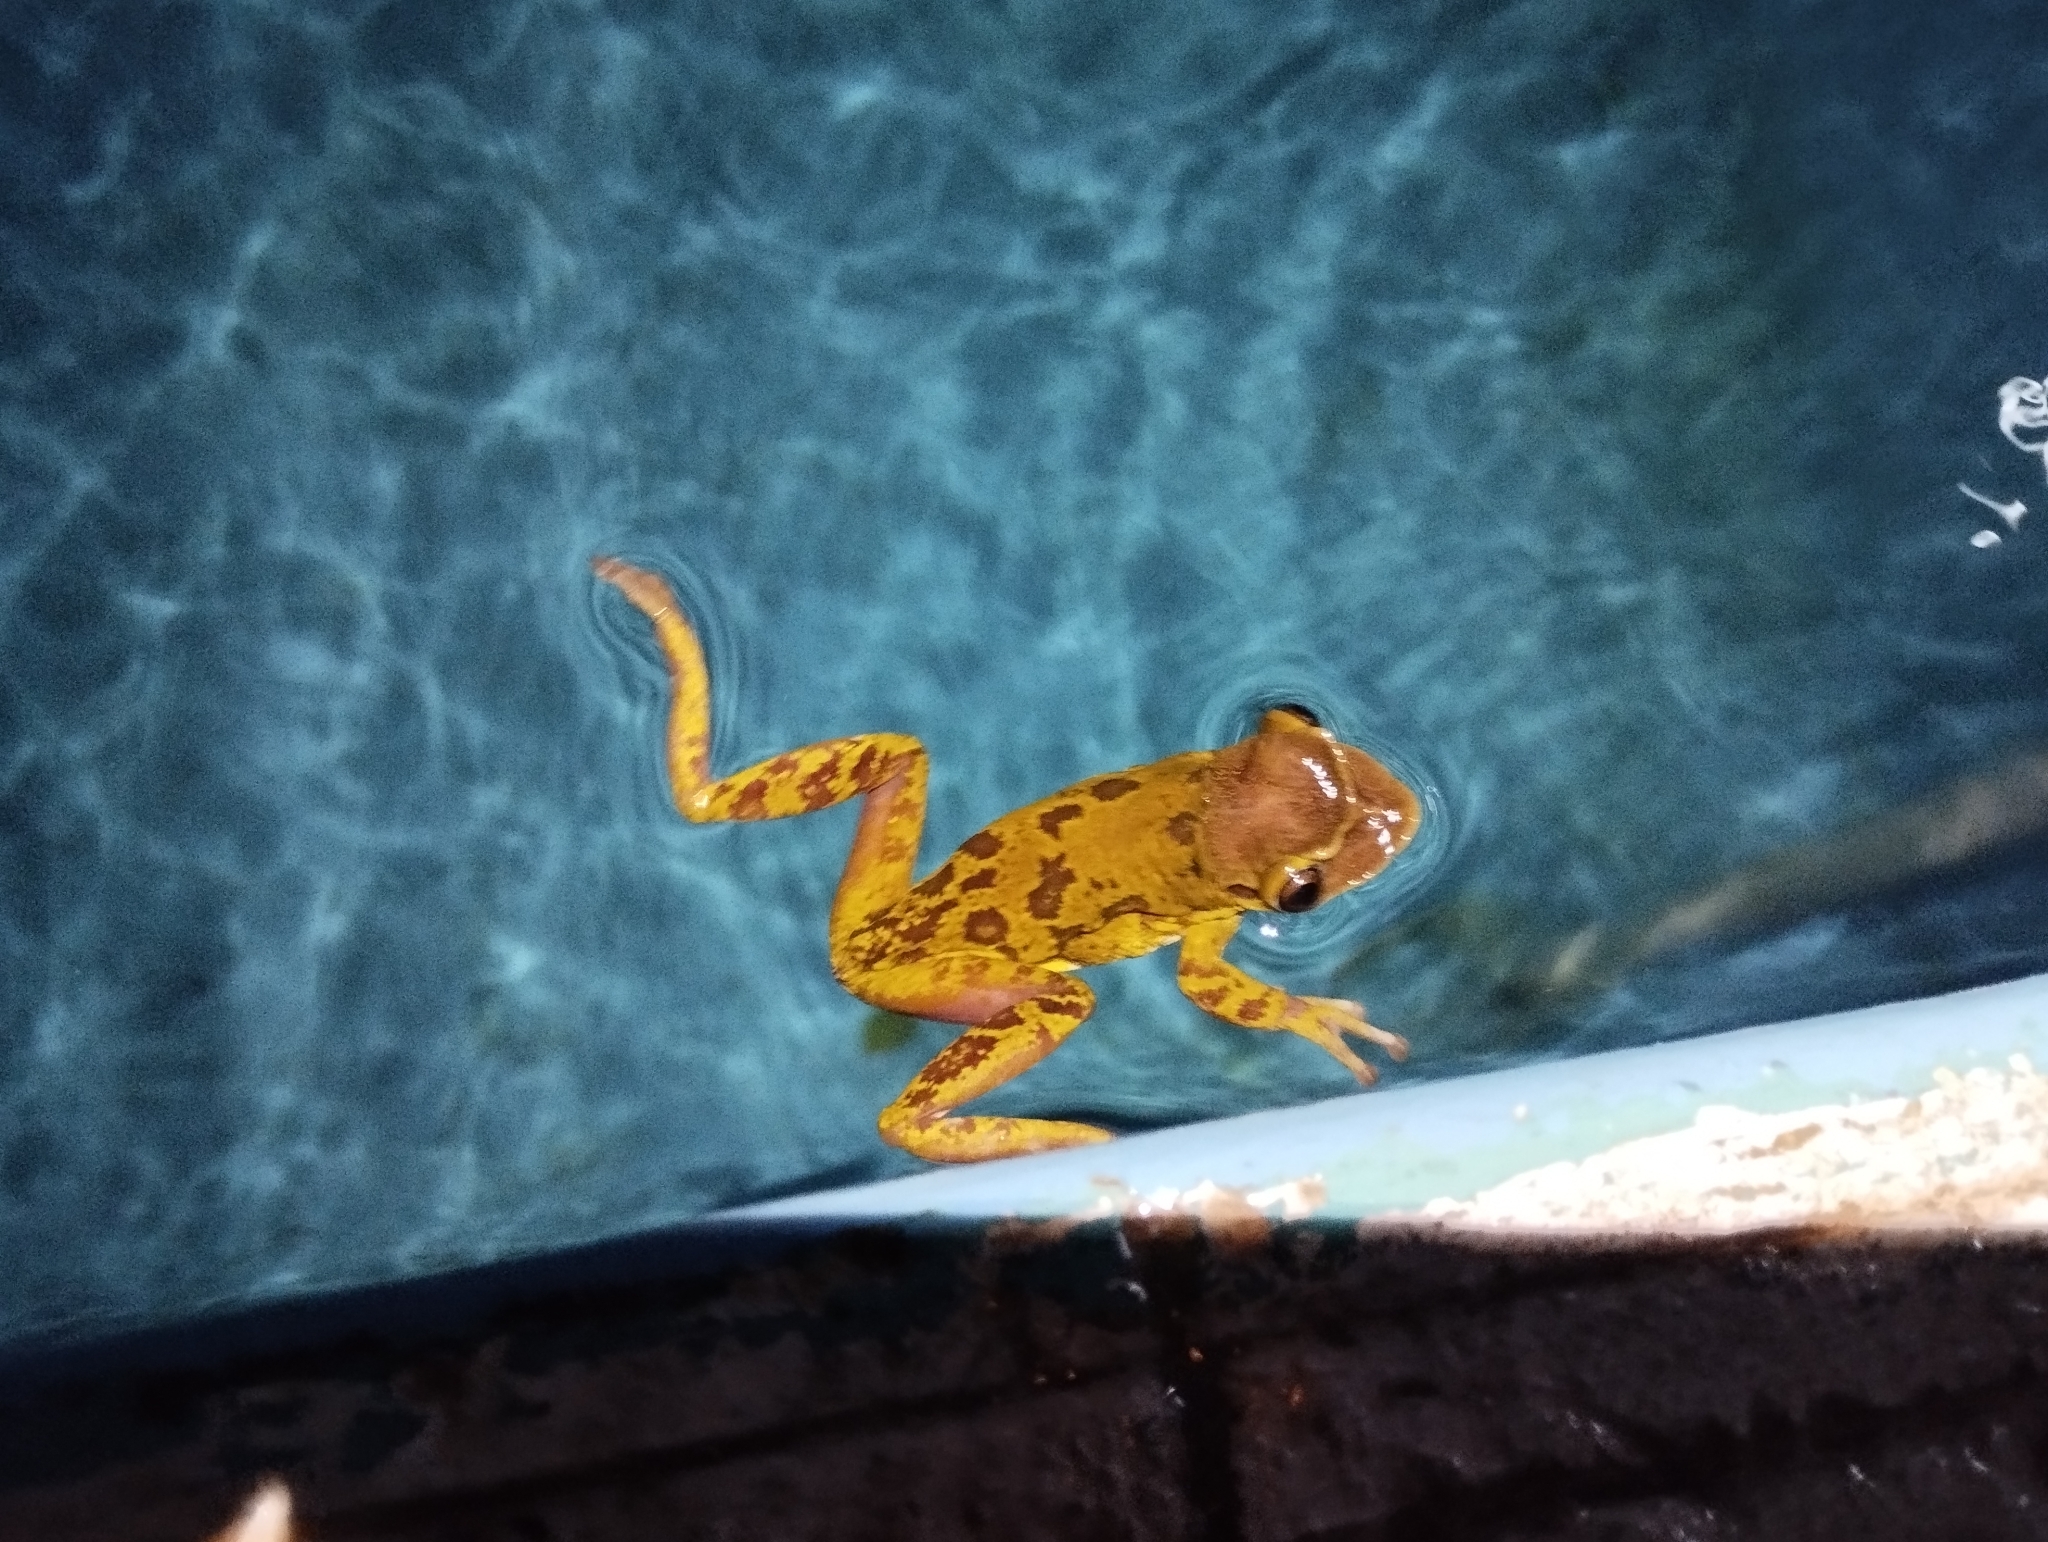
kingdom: Animalia
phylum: Chordata
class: Amphibia
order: Anura
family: Hylidae
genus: Triprion
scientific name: Triprion petasatus
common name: Yucatecan casque-headed treefrog
